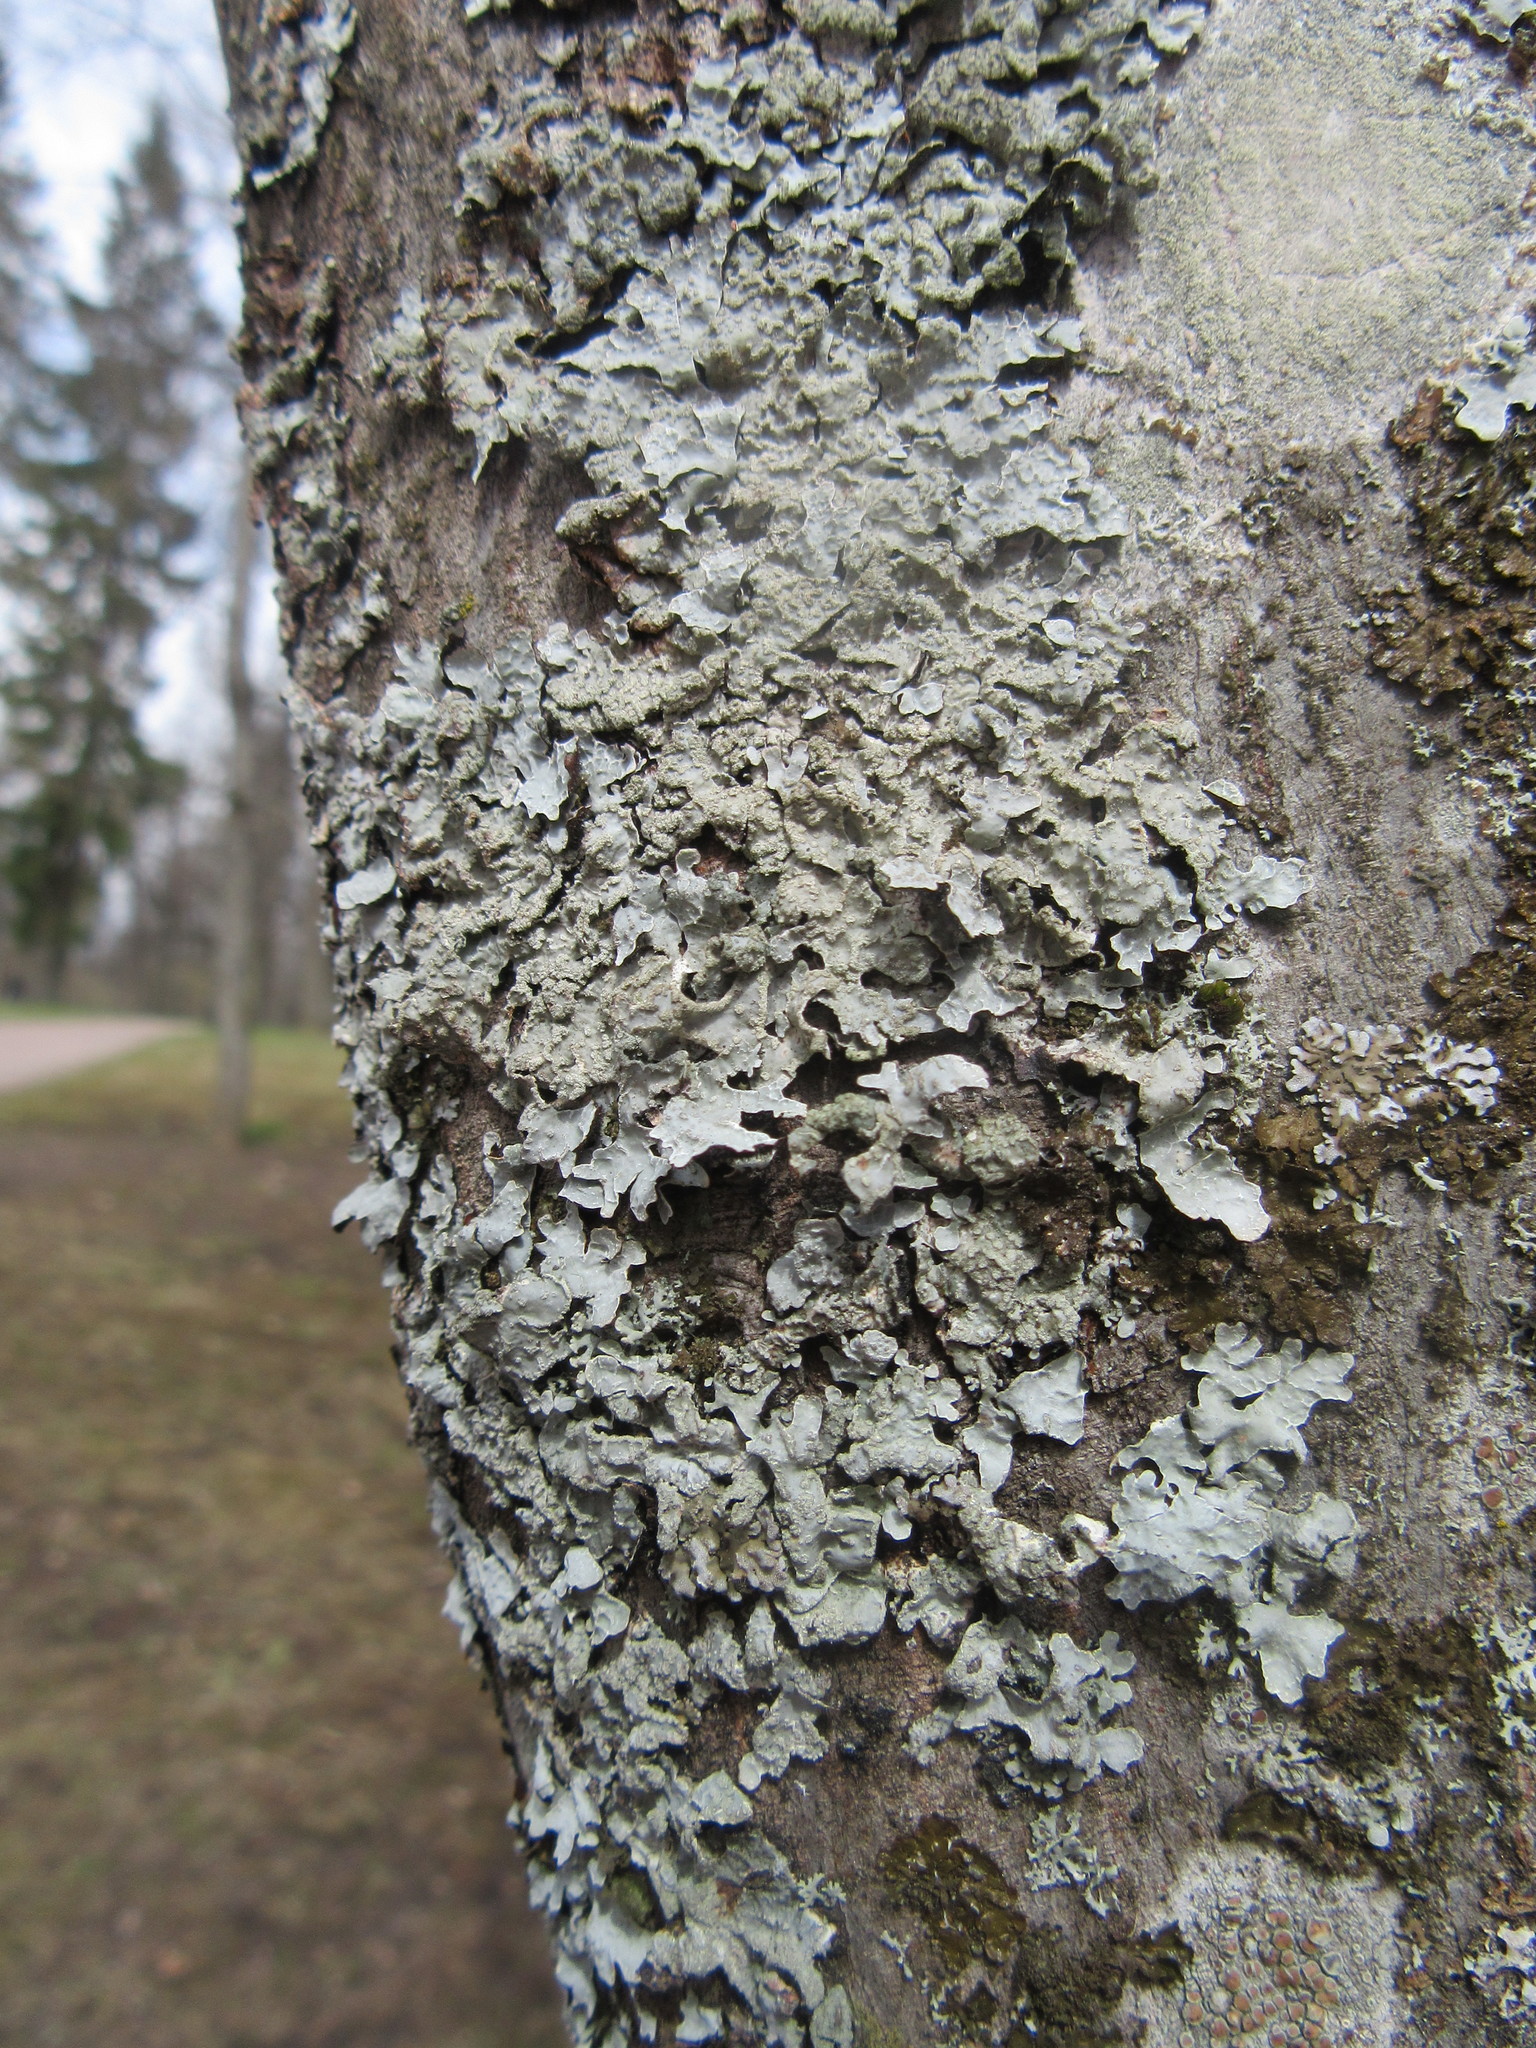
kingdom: Fungi
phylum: Ascomycota
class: Lecanoromycetes
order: Lecanorales
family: Parmeliaceae
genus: Parmelia
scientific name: Parmelia sulcata
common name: Netted shield lichen
